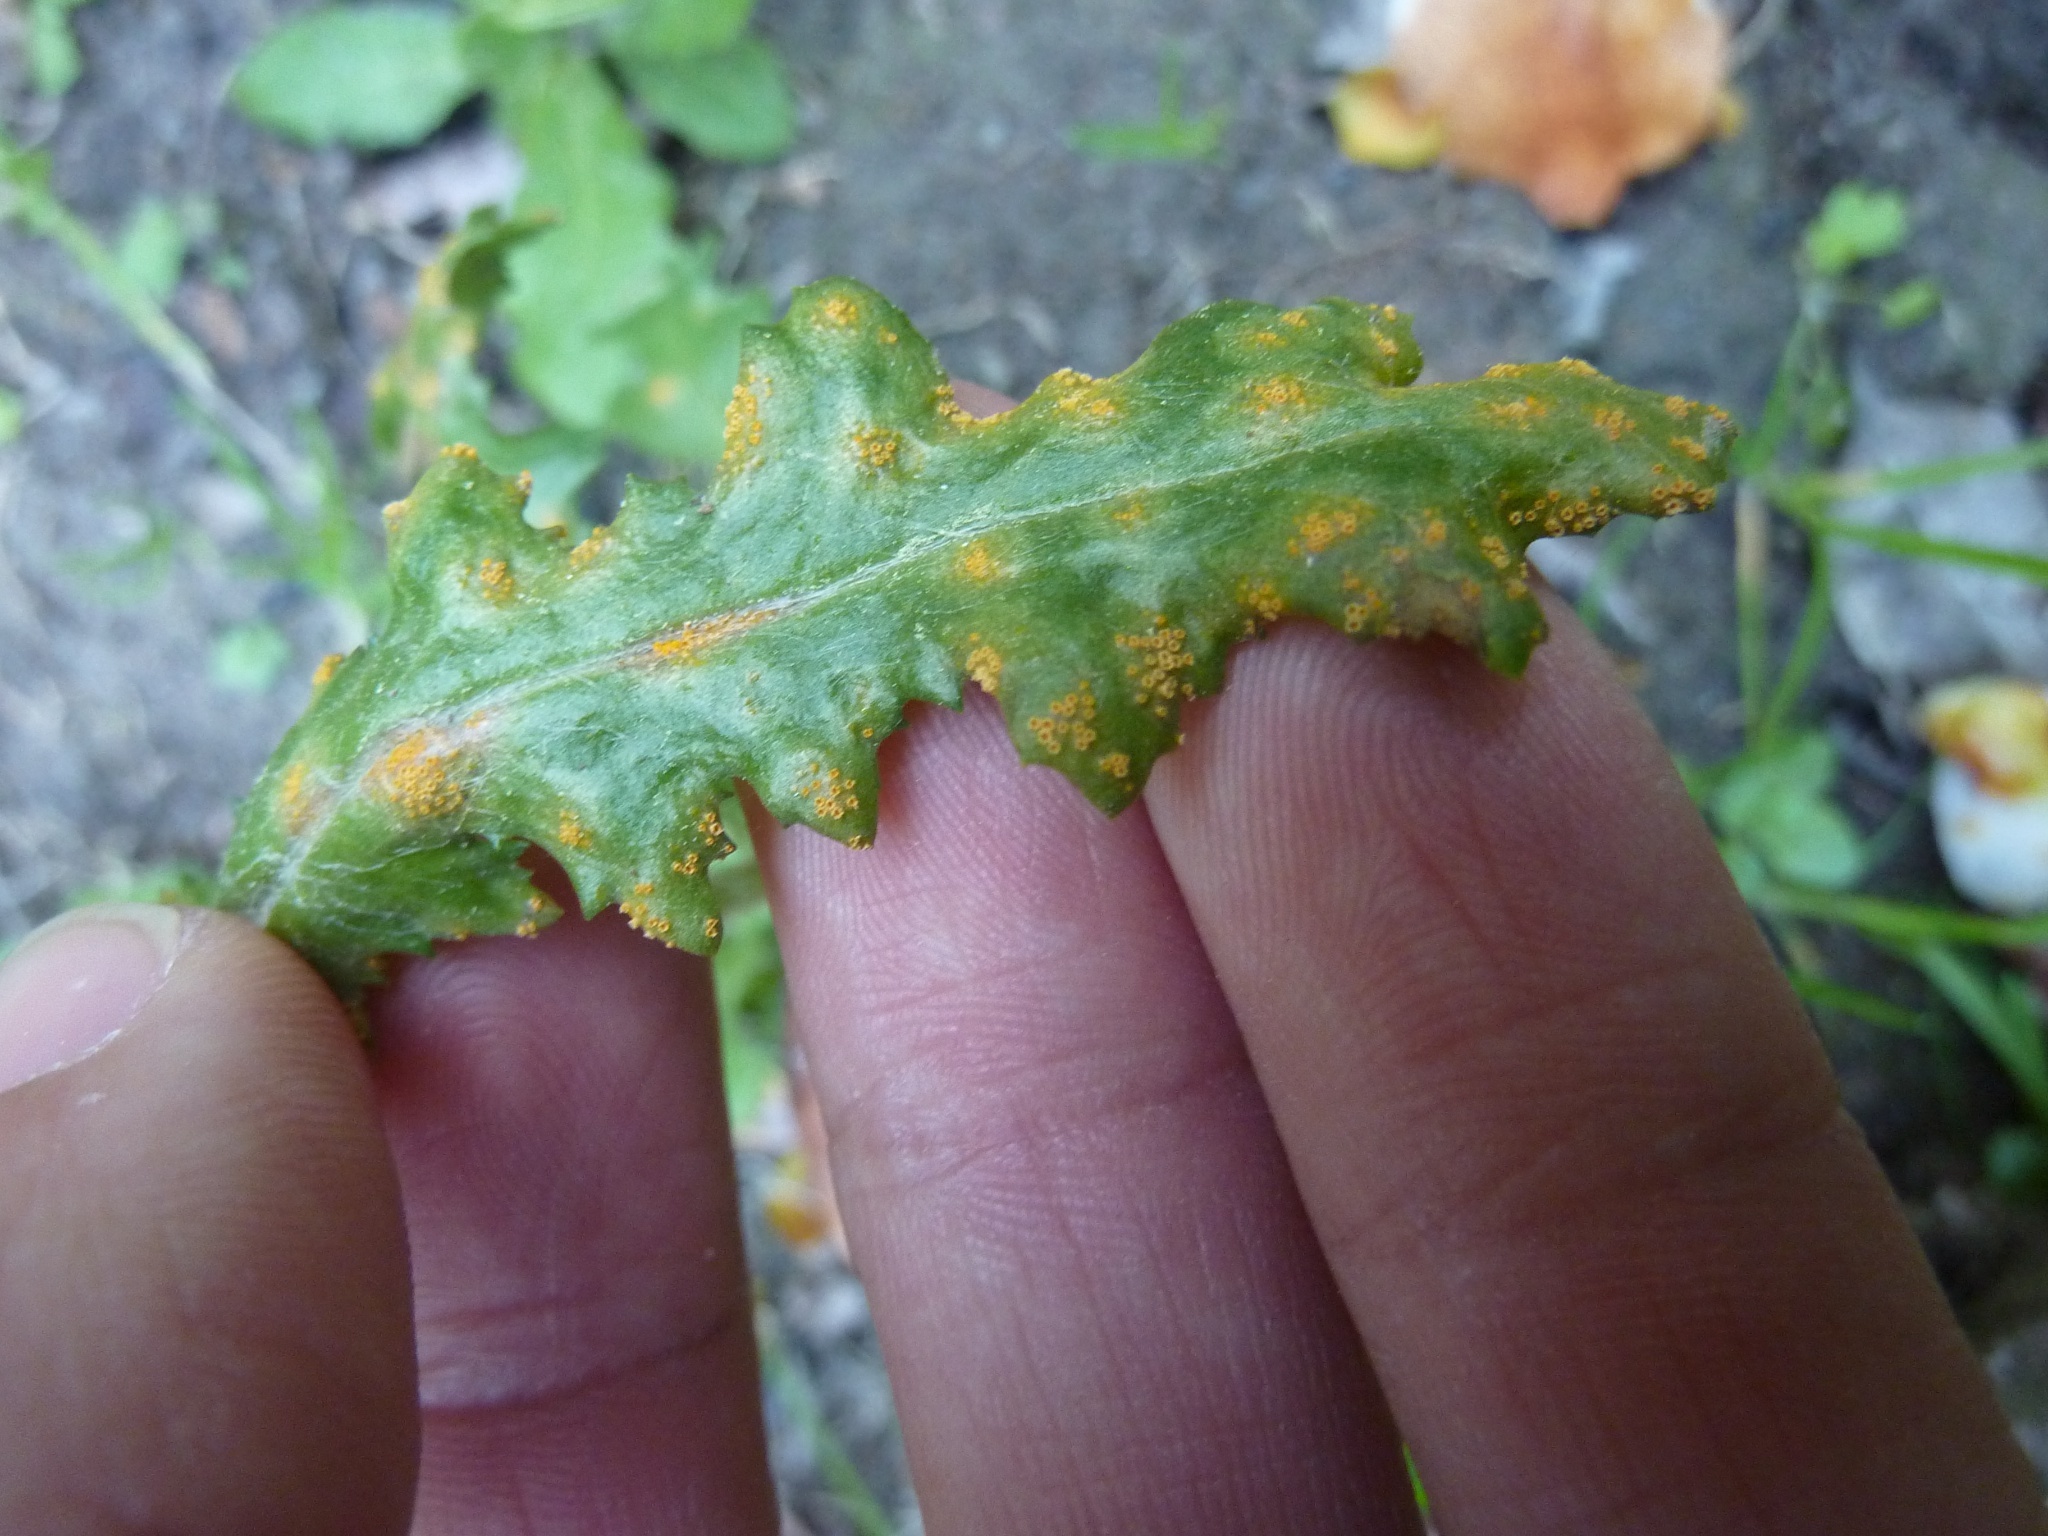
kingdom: Plantae
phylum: Tracheophyta
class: Magnoliopsida
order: Asterales
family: Asteraceae
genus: Senecio
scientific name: Senecio vulgaris
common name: Old-man-in-the-spring
